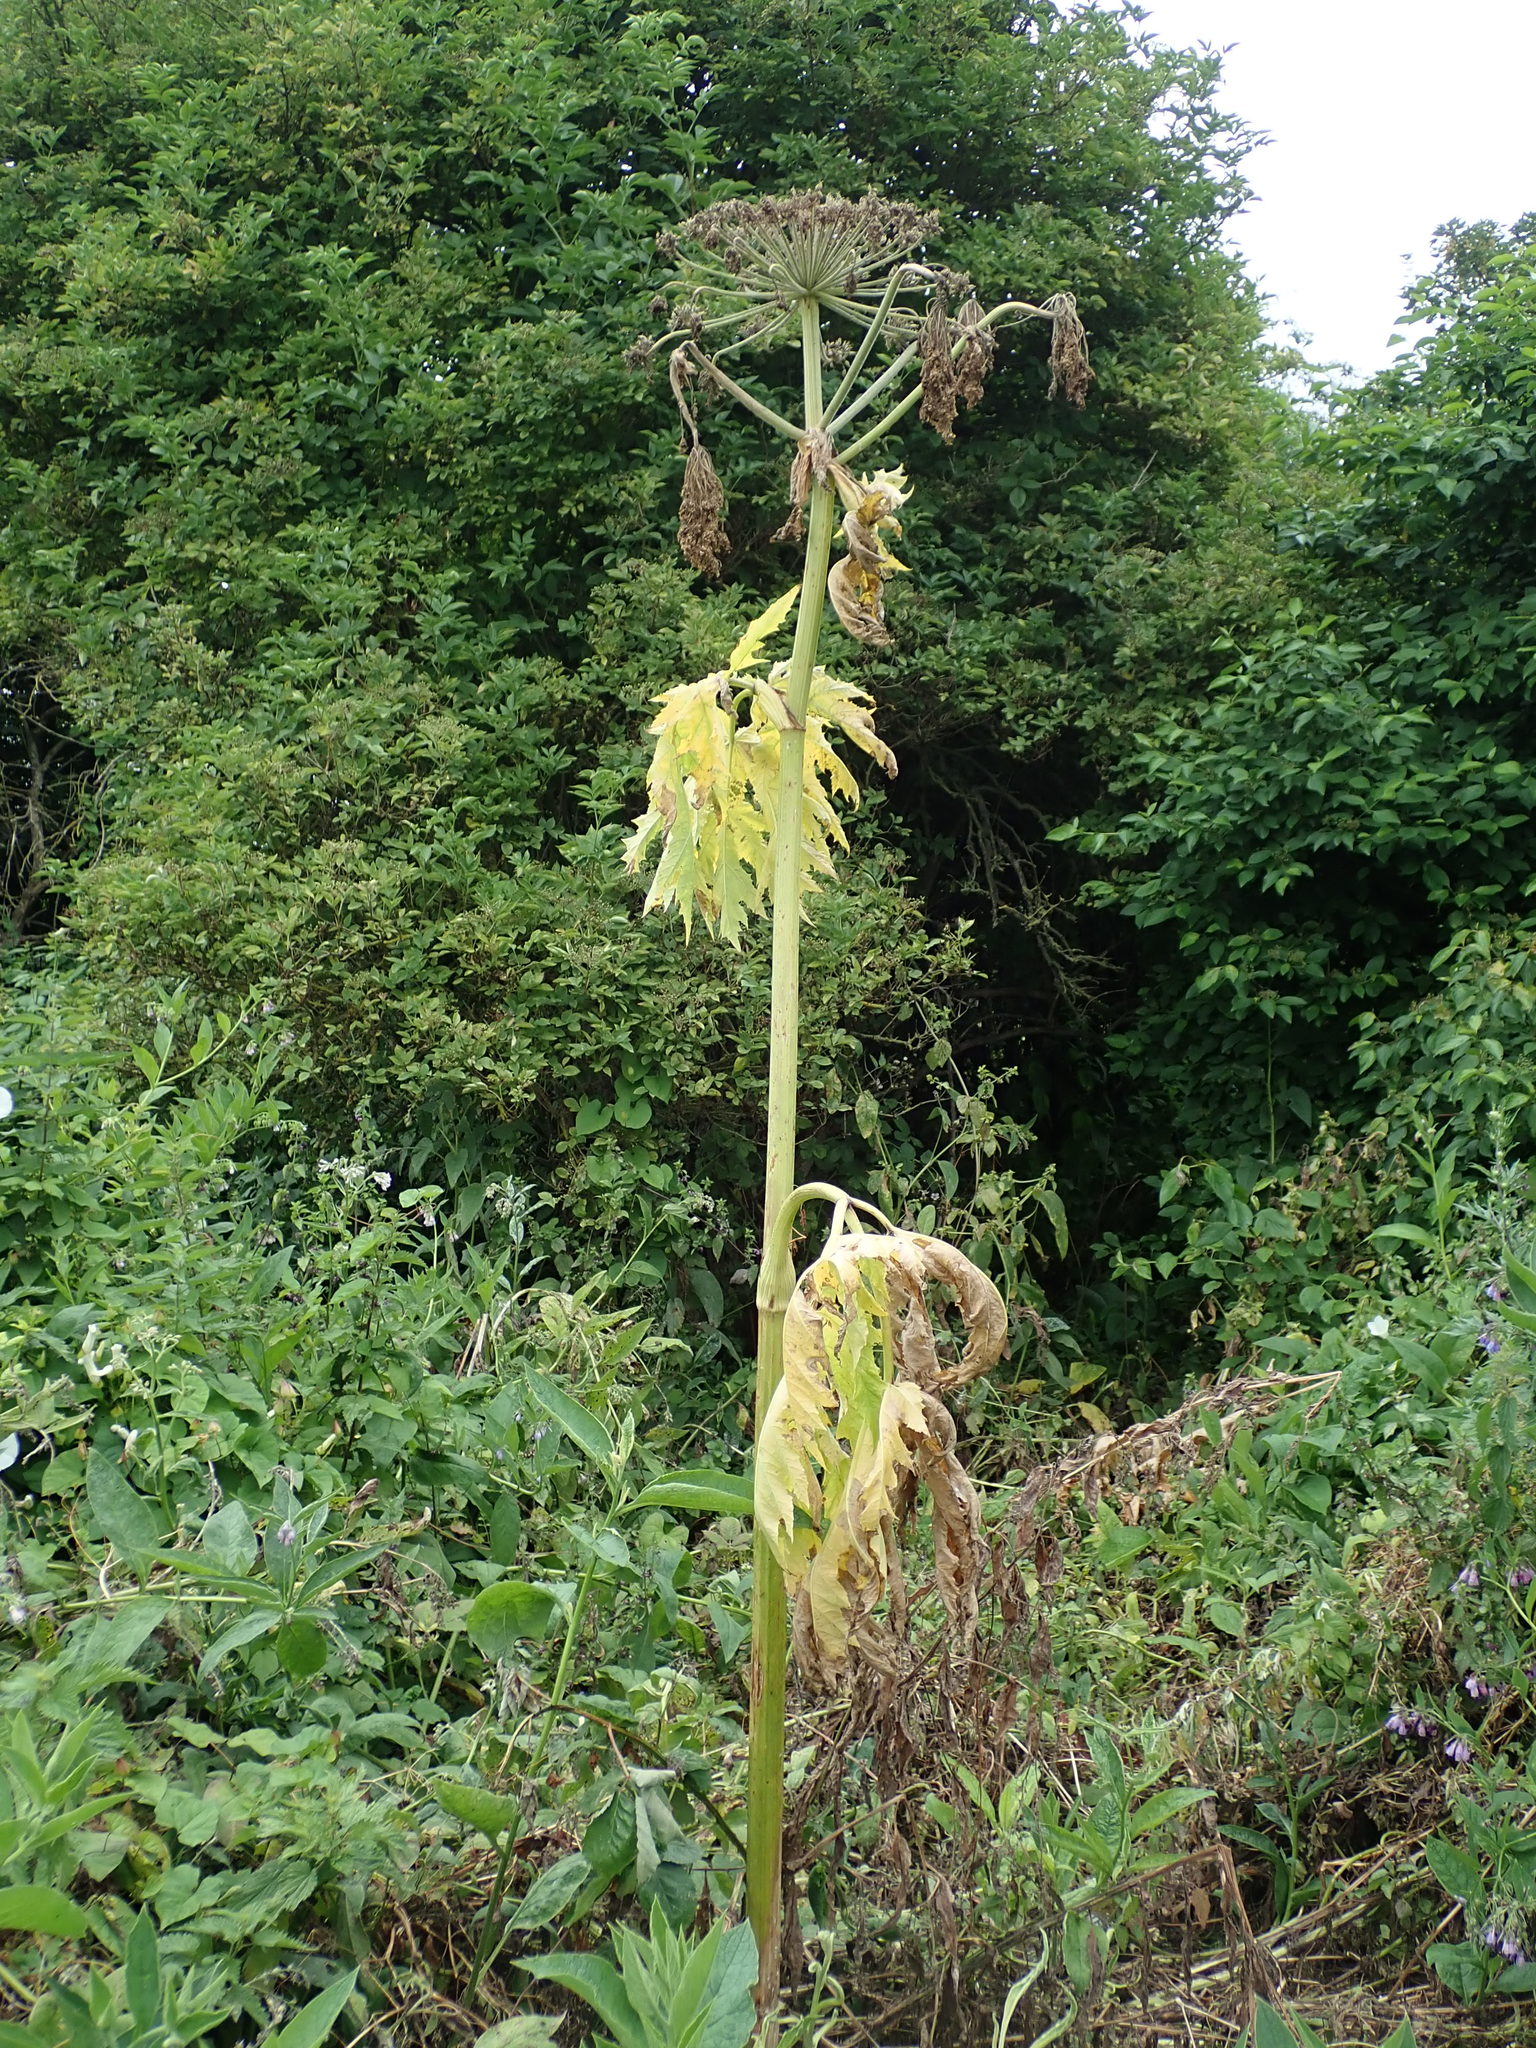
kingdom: Plantae
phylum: Tracheophyta
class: Magnoliopsida
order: Apiales
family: Apiaceae
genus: Heracleum
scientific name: Heracleum mantegazzianum
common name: Giant hogweed
